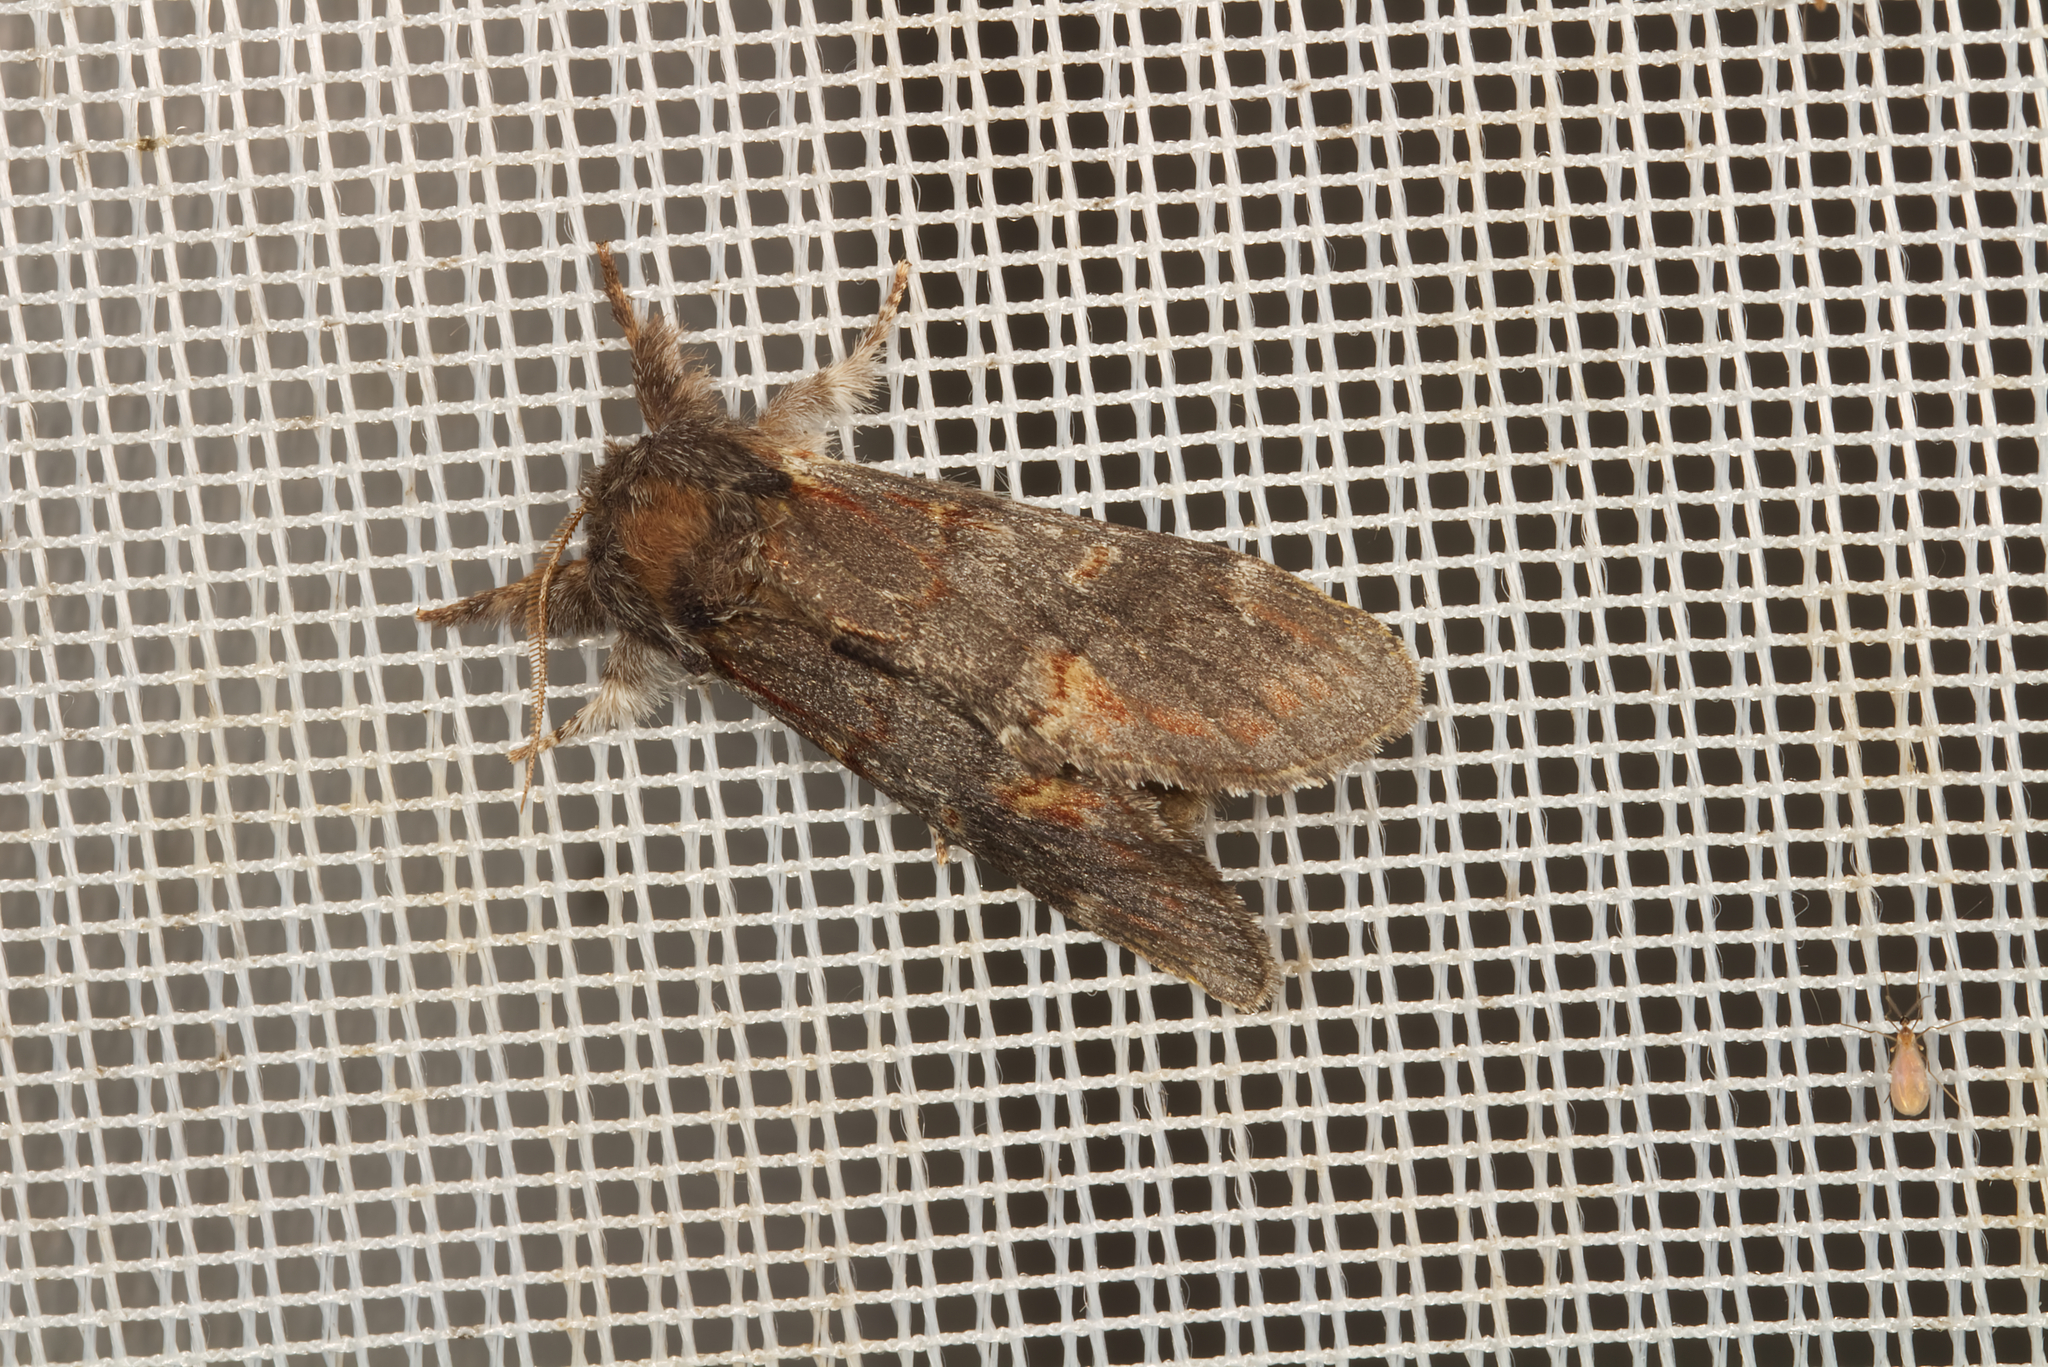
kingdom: Animalia
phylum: Arthropoda
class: Insecta
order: Lepidoptera
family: Notodontidae
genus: Notodonta
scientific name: Notodonta dromedarius
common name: Iron prominent
